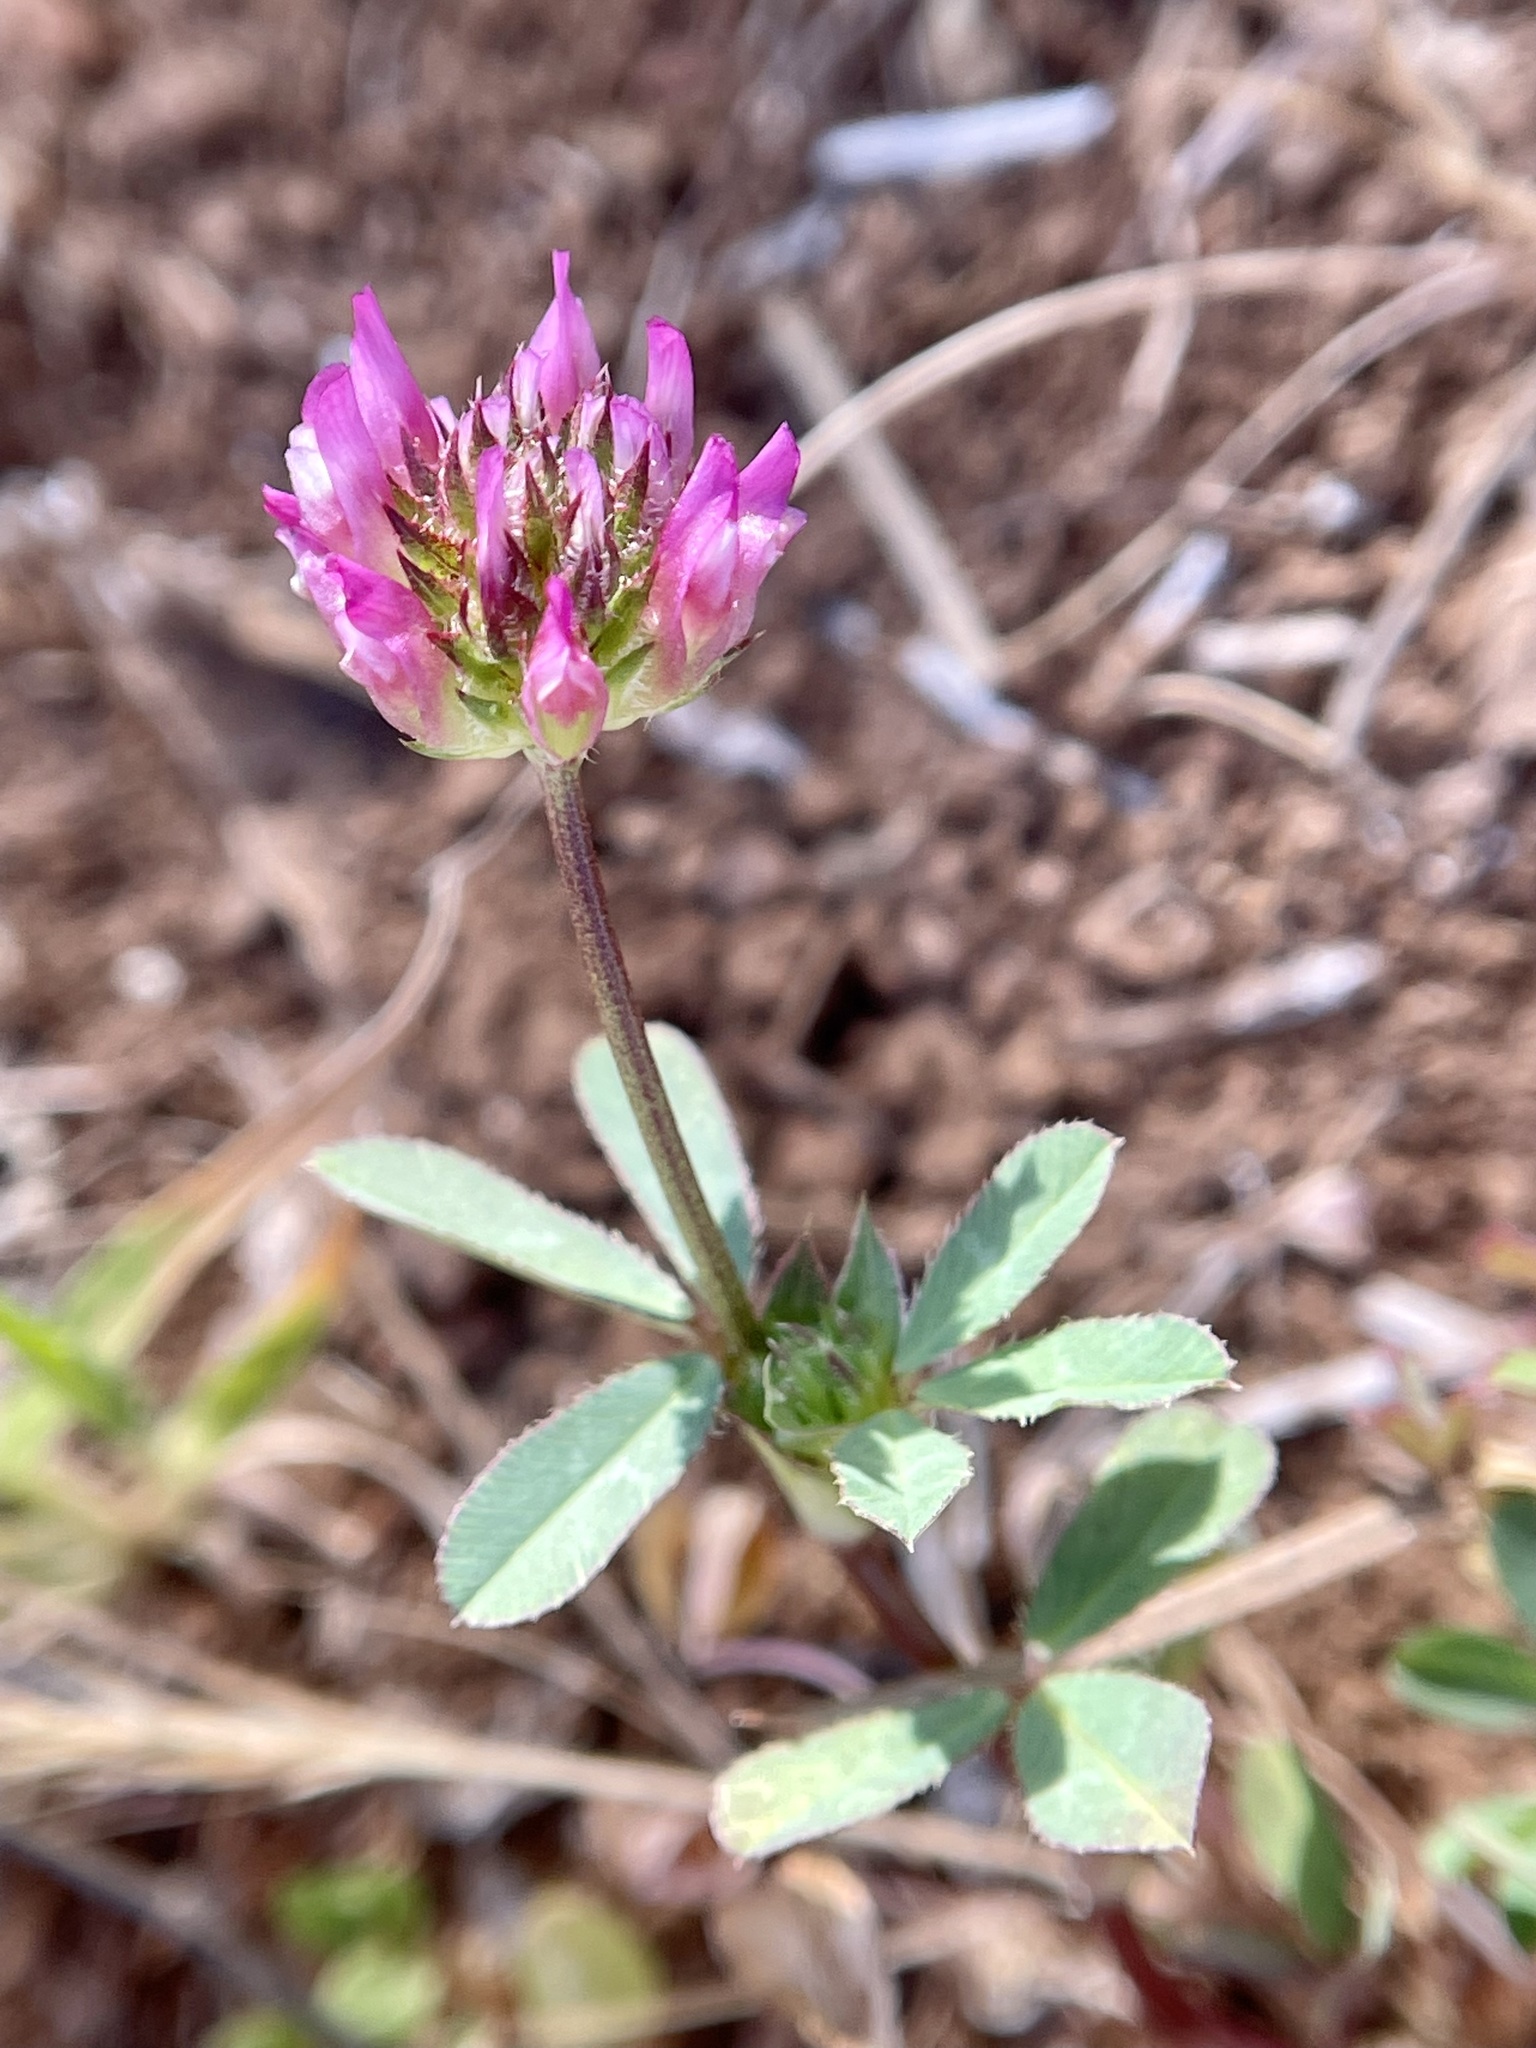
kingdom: Plantae
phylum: Tracheophyta
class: Magnoliopsida
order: Fabales
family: Fabaceae
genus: Trifolium
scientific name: Trifolium ciliolatum
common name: Foothill clover
